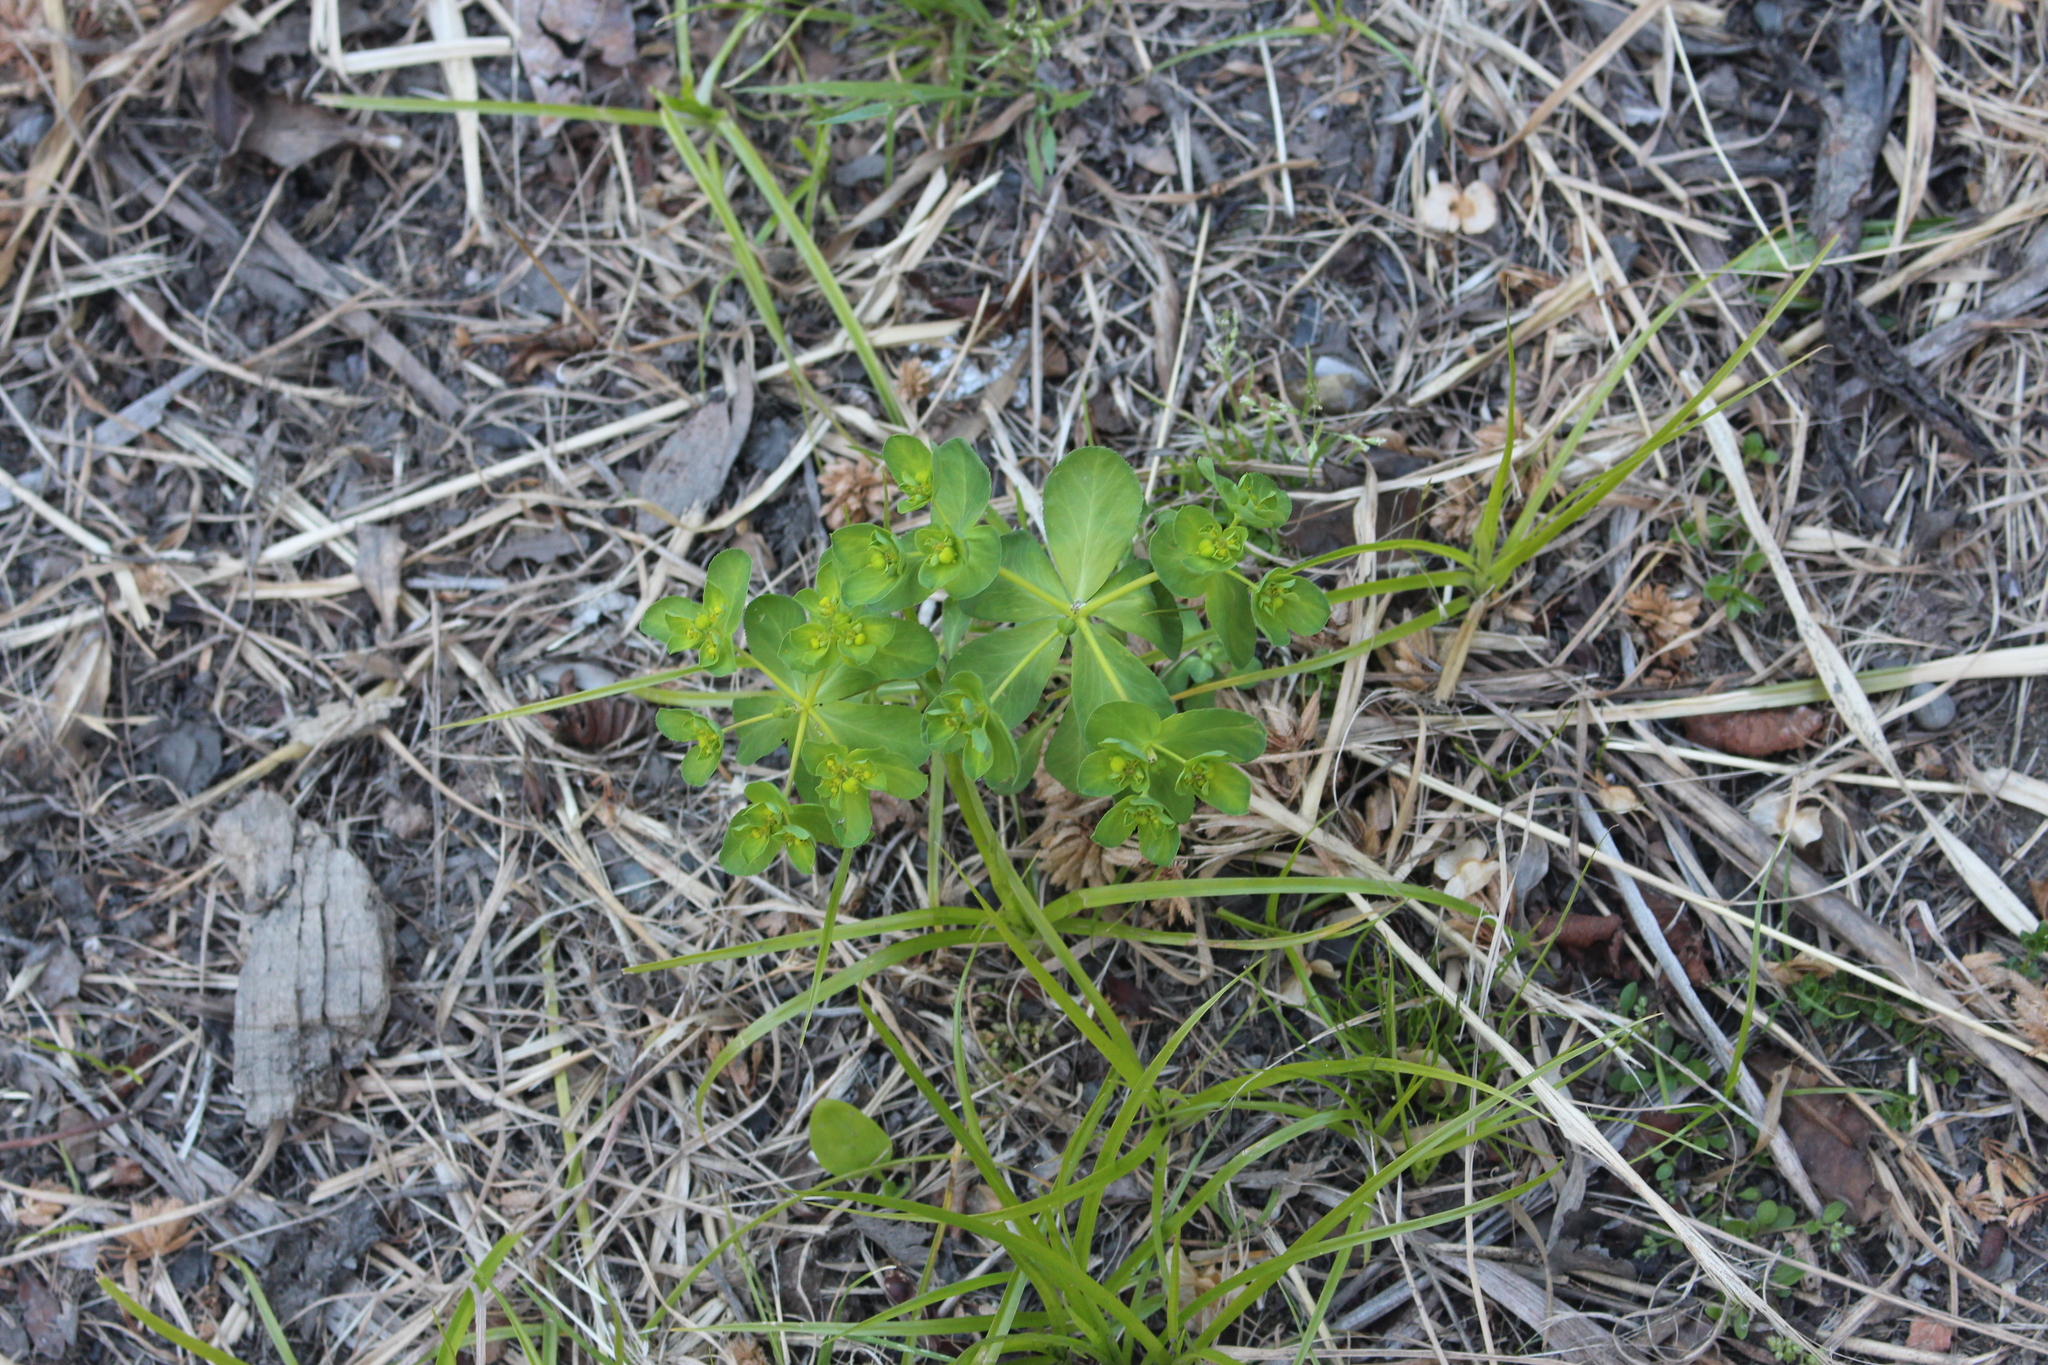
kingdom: Plantae
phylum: Tracheophyta
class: Magnoliopsida
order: Malpighiales
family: Euphorbiaceae
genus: Euphorbia
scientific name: Euphorbia helioscopia
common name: Sun spurge
